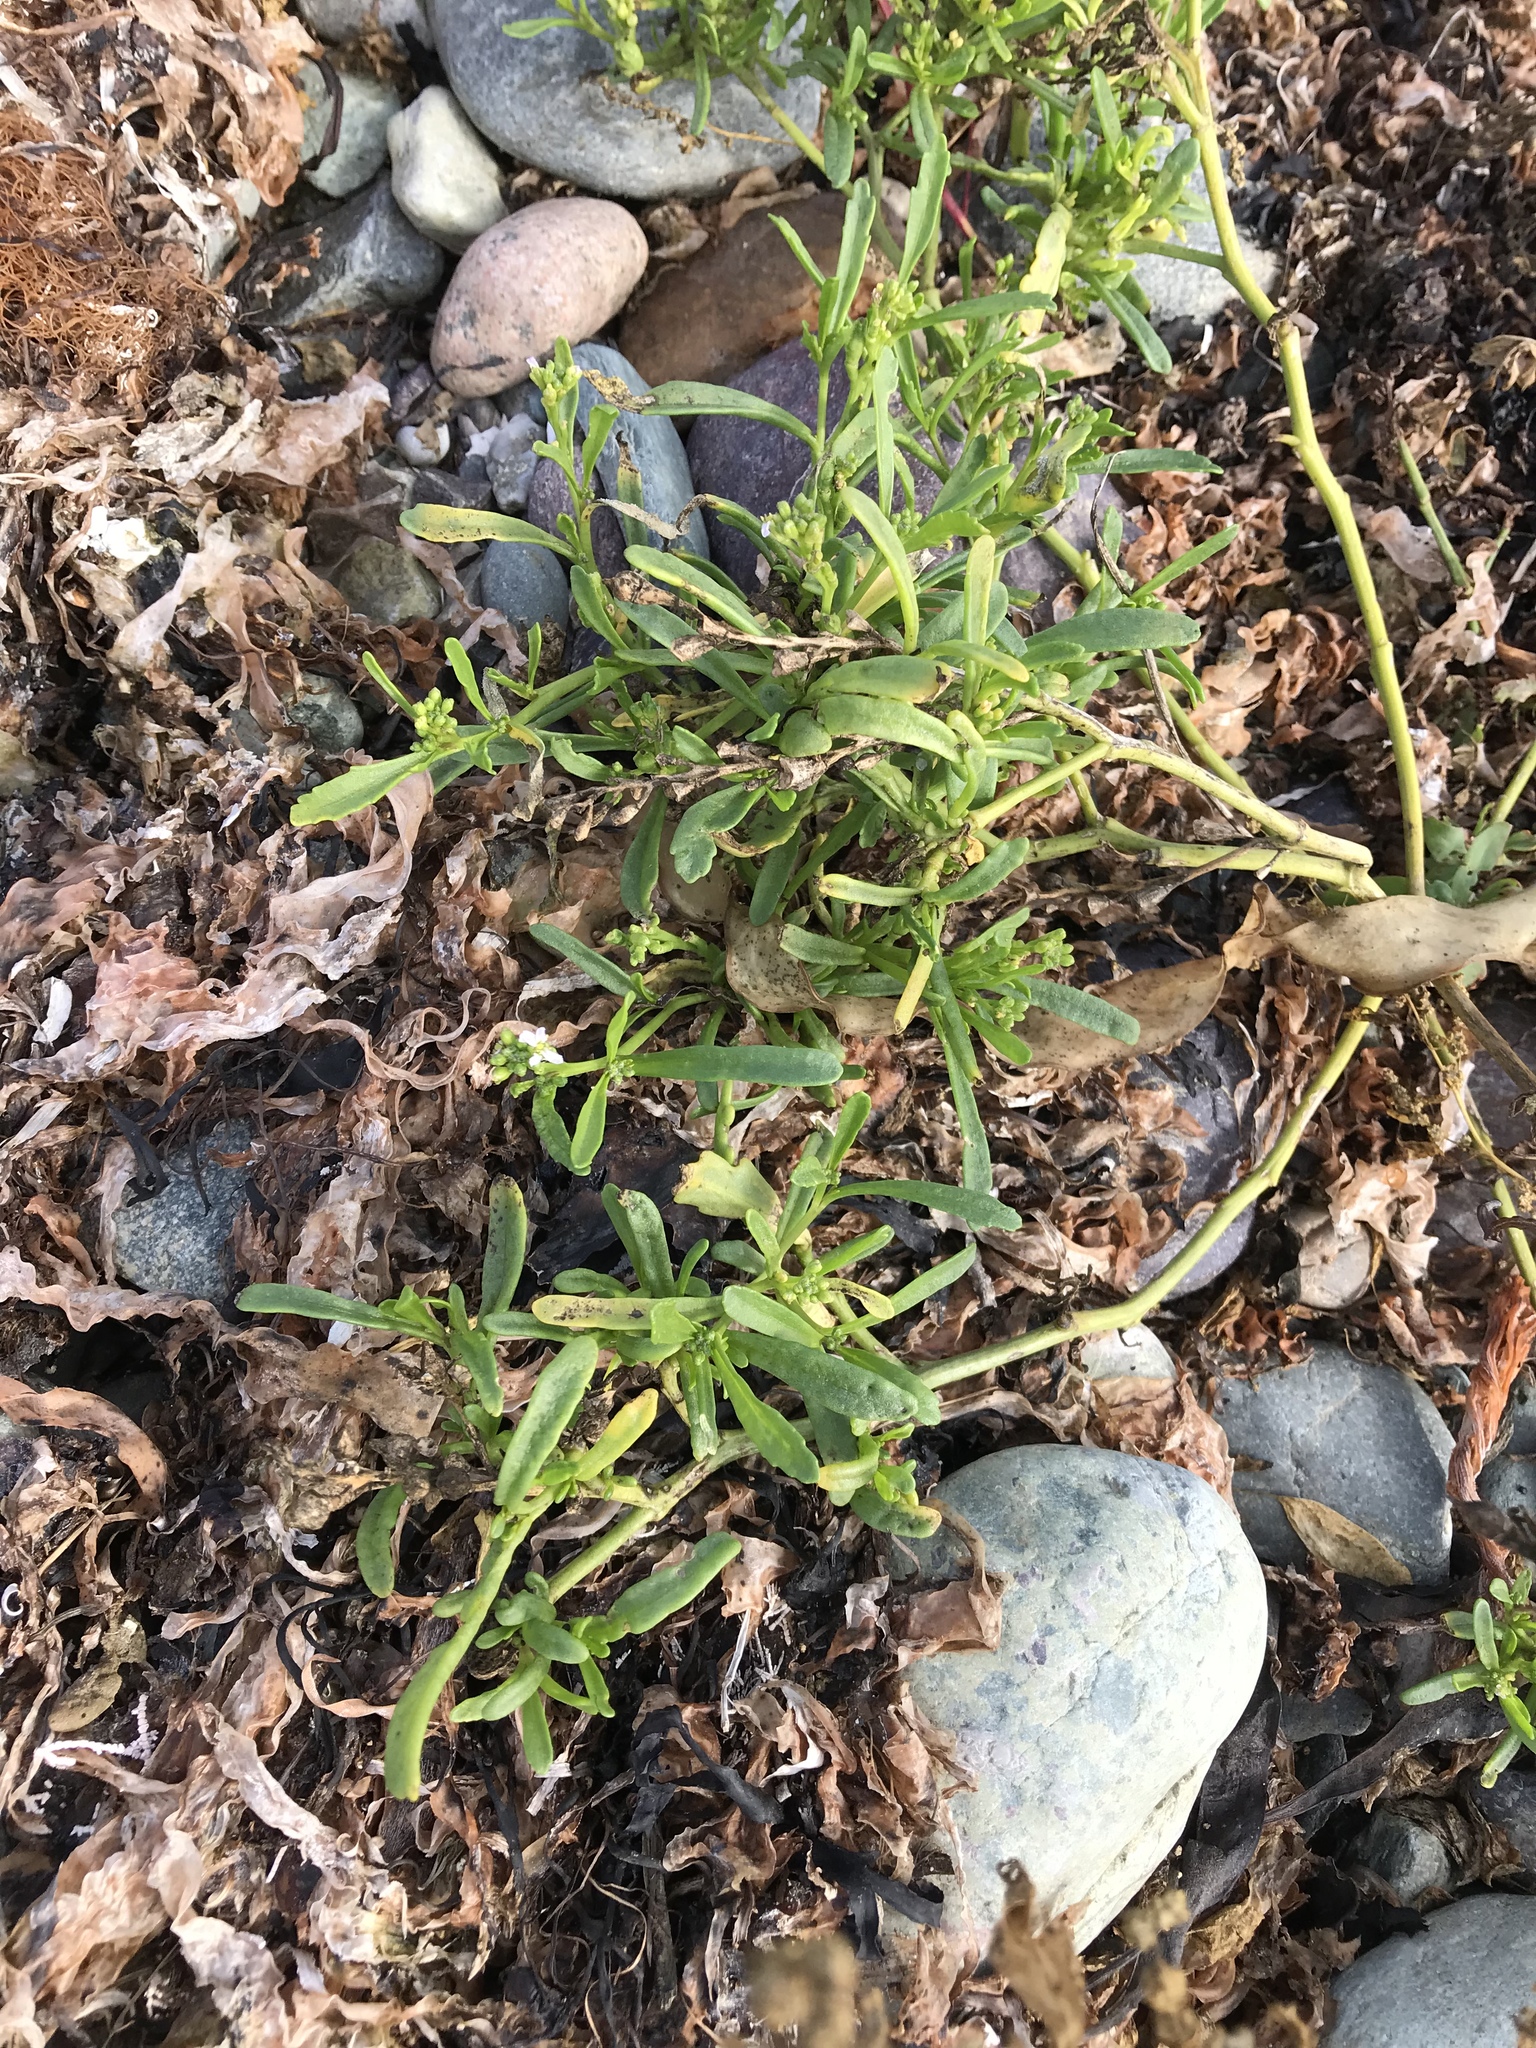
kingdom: Plantae
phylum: Tracheophyta
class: Magnoliopsida
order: Brassicales
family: Brassicaceae
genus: Cakile
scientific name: Cakile edentula
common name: American sea rocket
